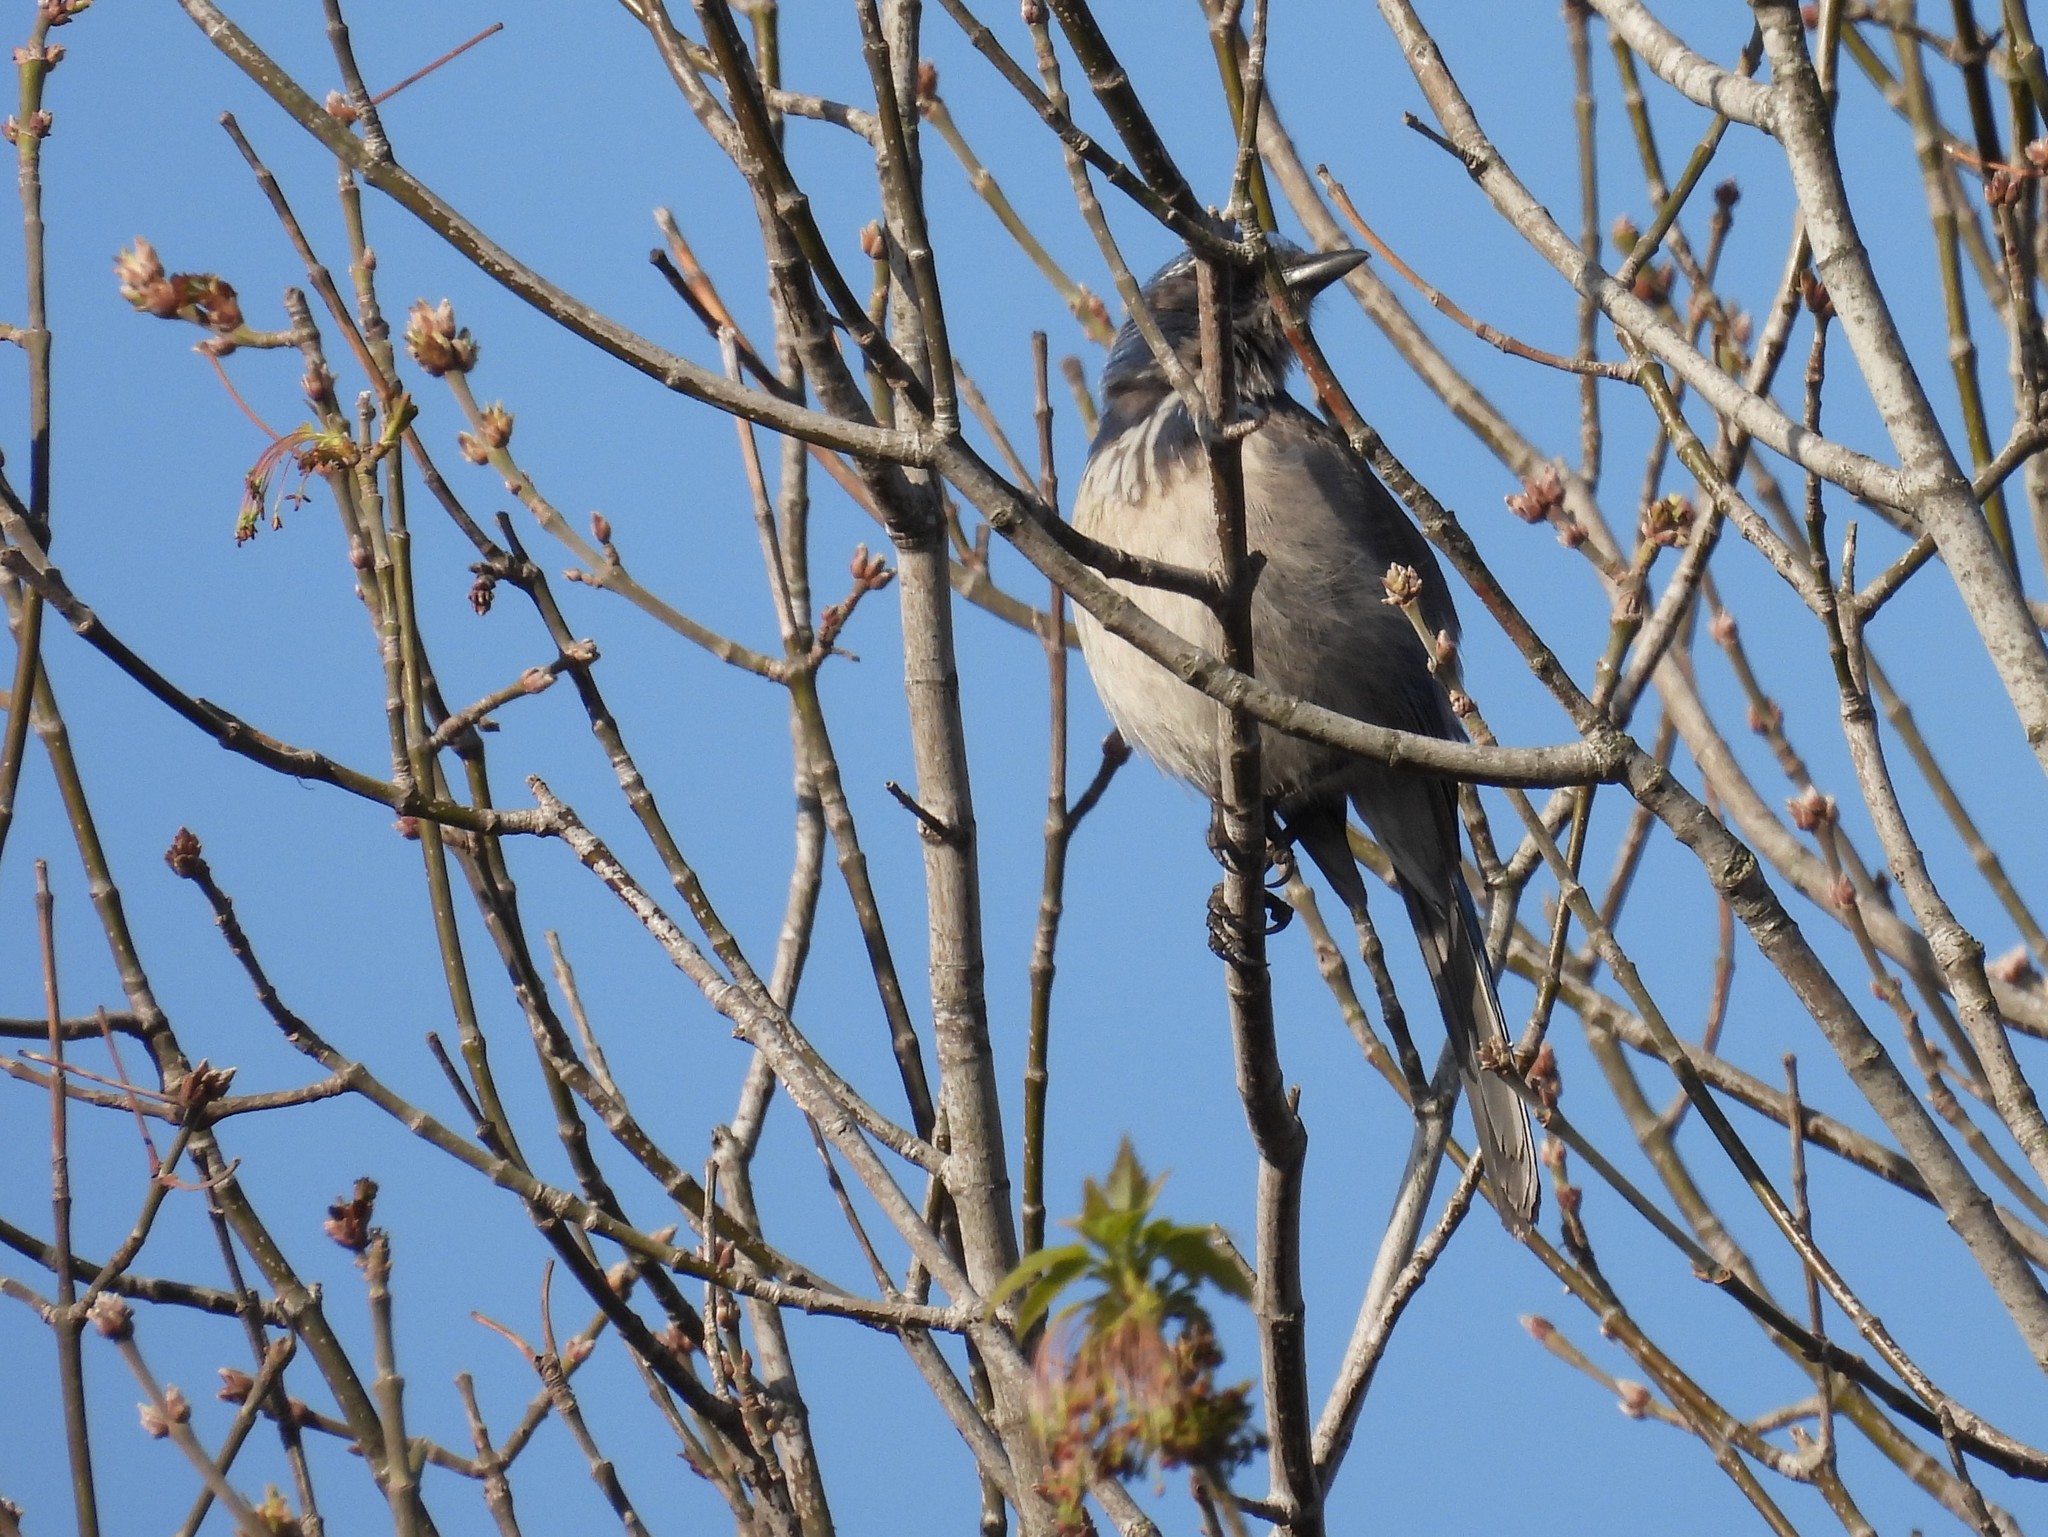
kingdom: Animalia
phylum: Chordata
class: Aves
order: Passeriformes
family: Corvidae
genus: Aphelocoma
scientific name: Aphelocoma californica
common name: California scrub-jay
